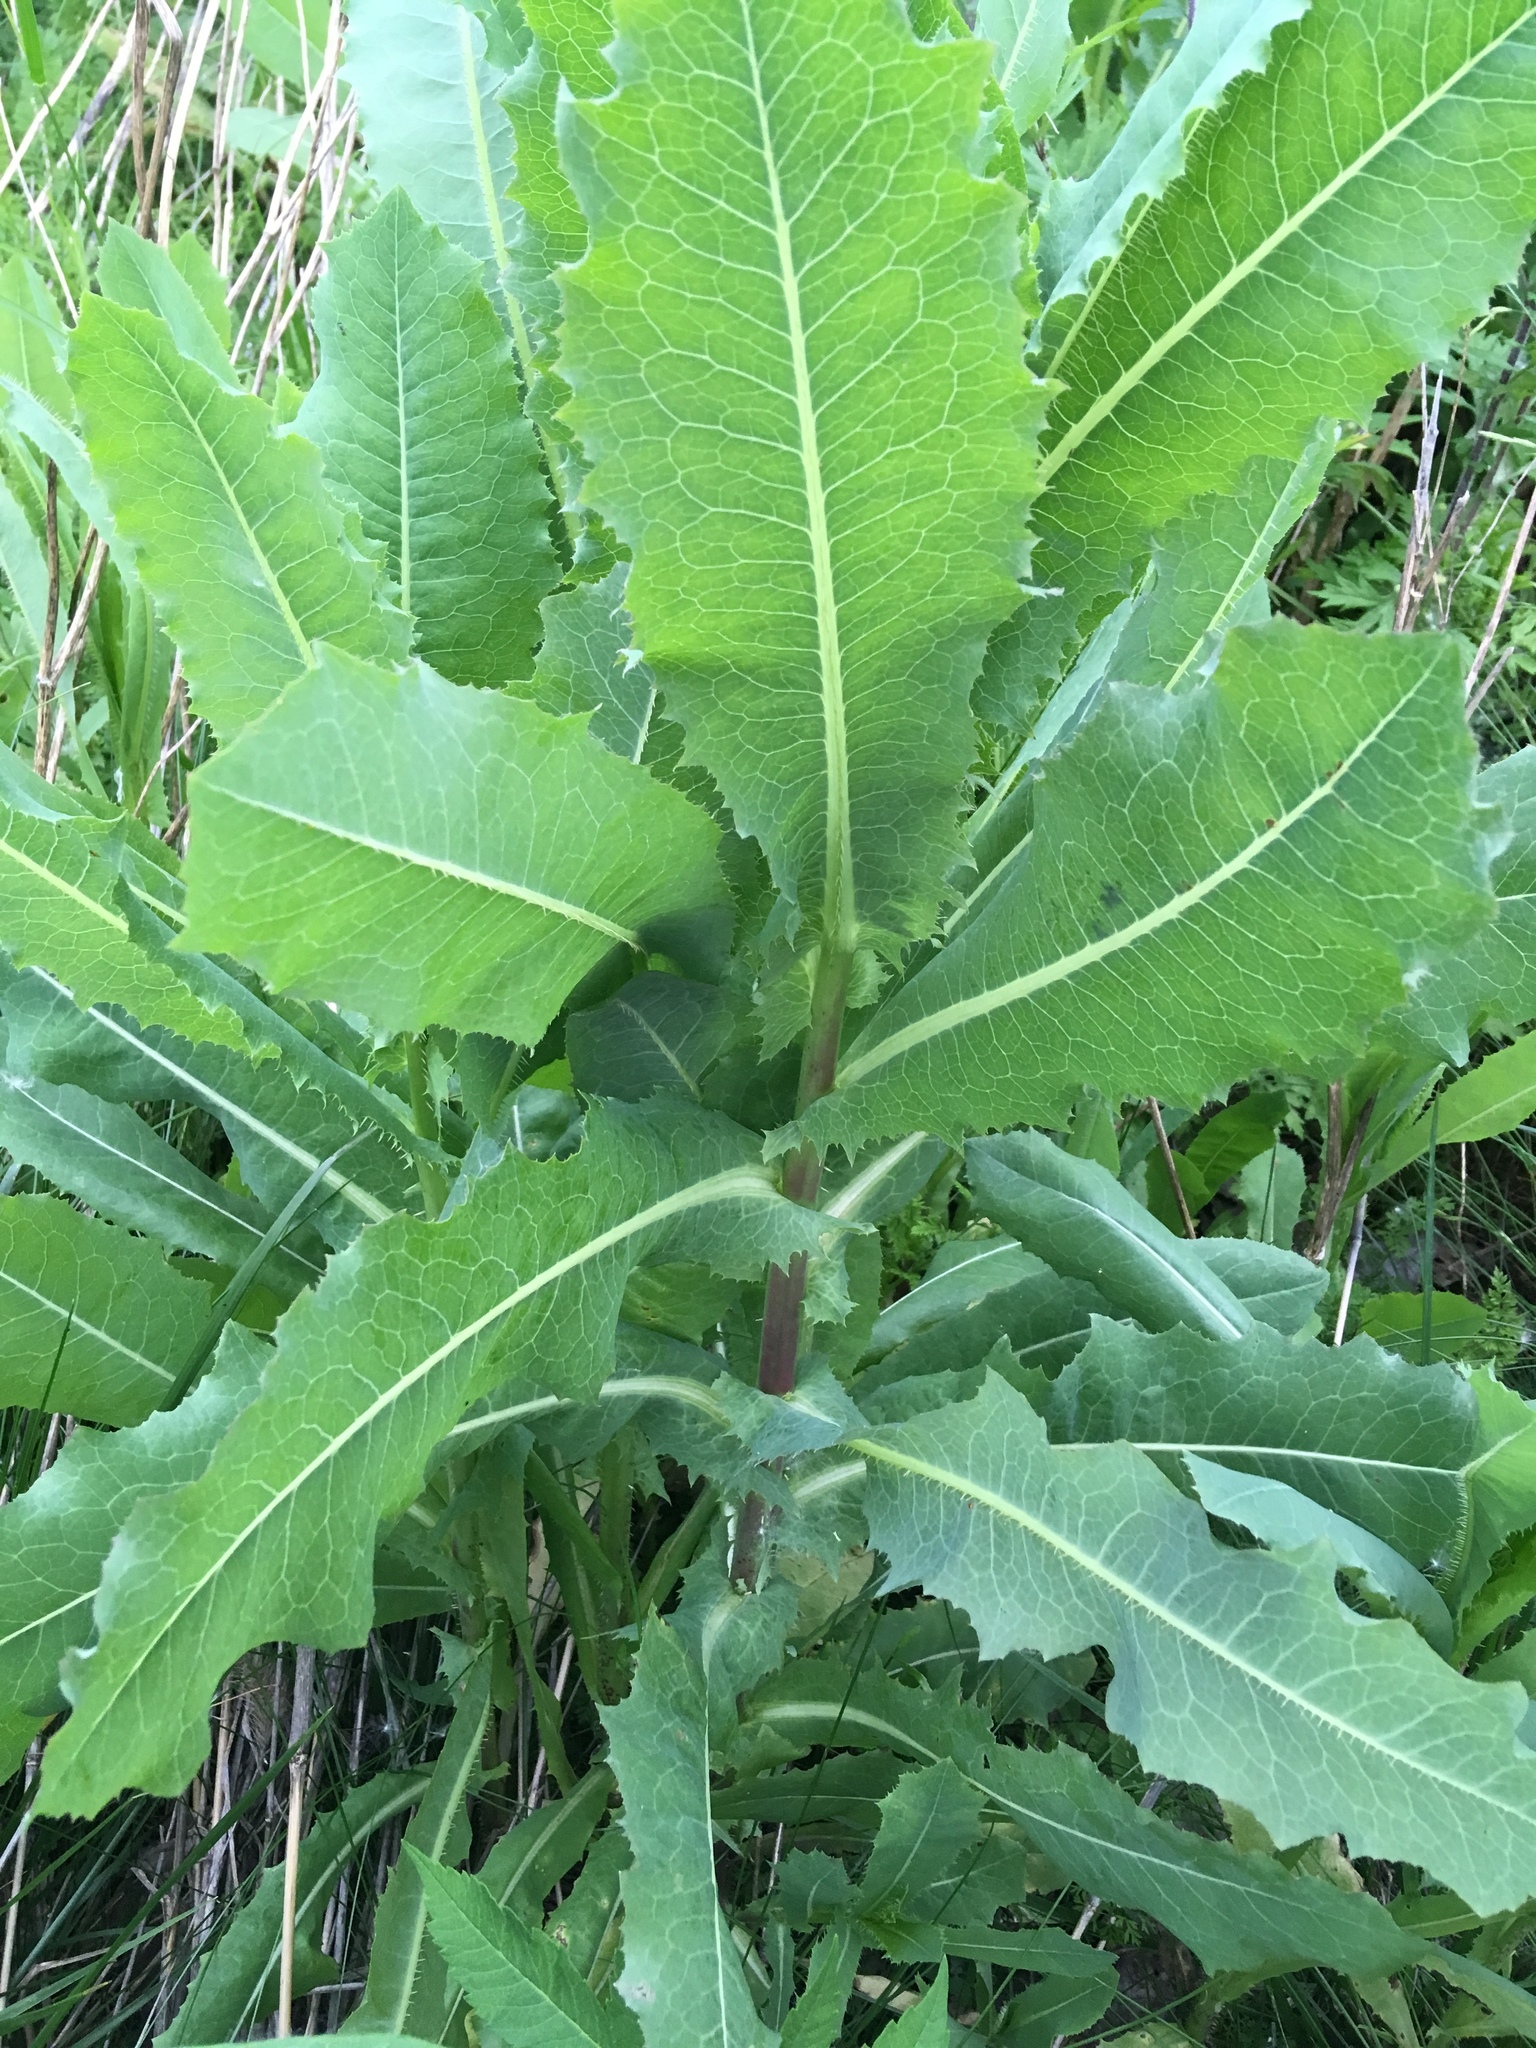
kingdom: Plantae
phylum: Tracheophyta
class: Magnoliopsida
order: Asterales
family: Asteraceae
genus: Lactuca
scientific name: Lactuca serriola
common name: Prickly lettuce
